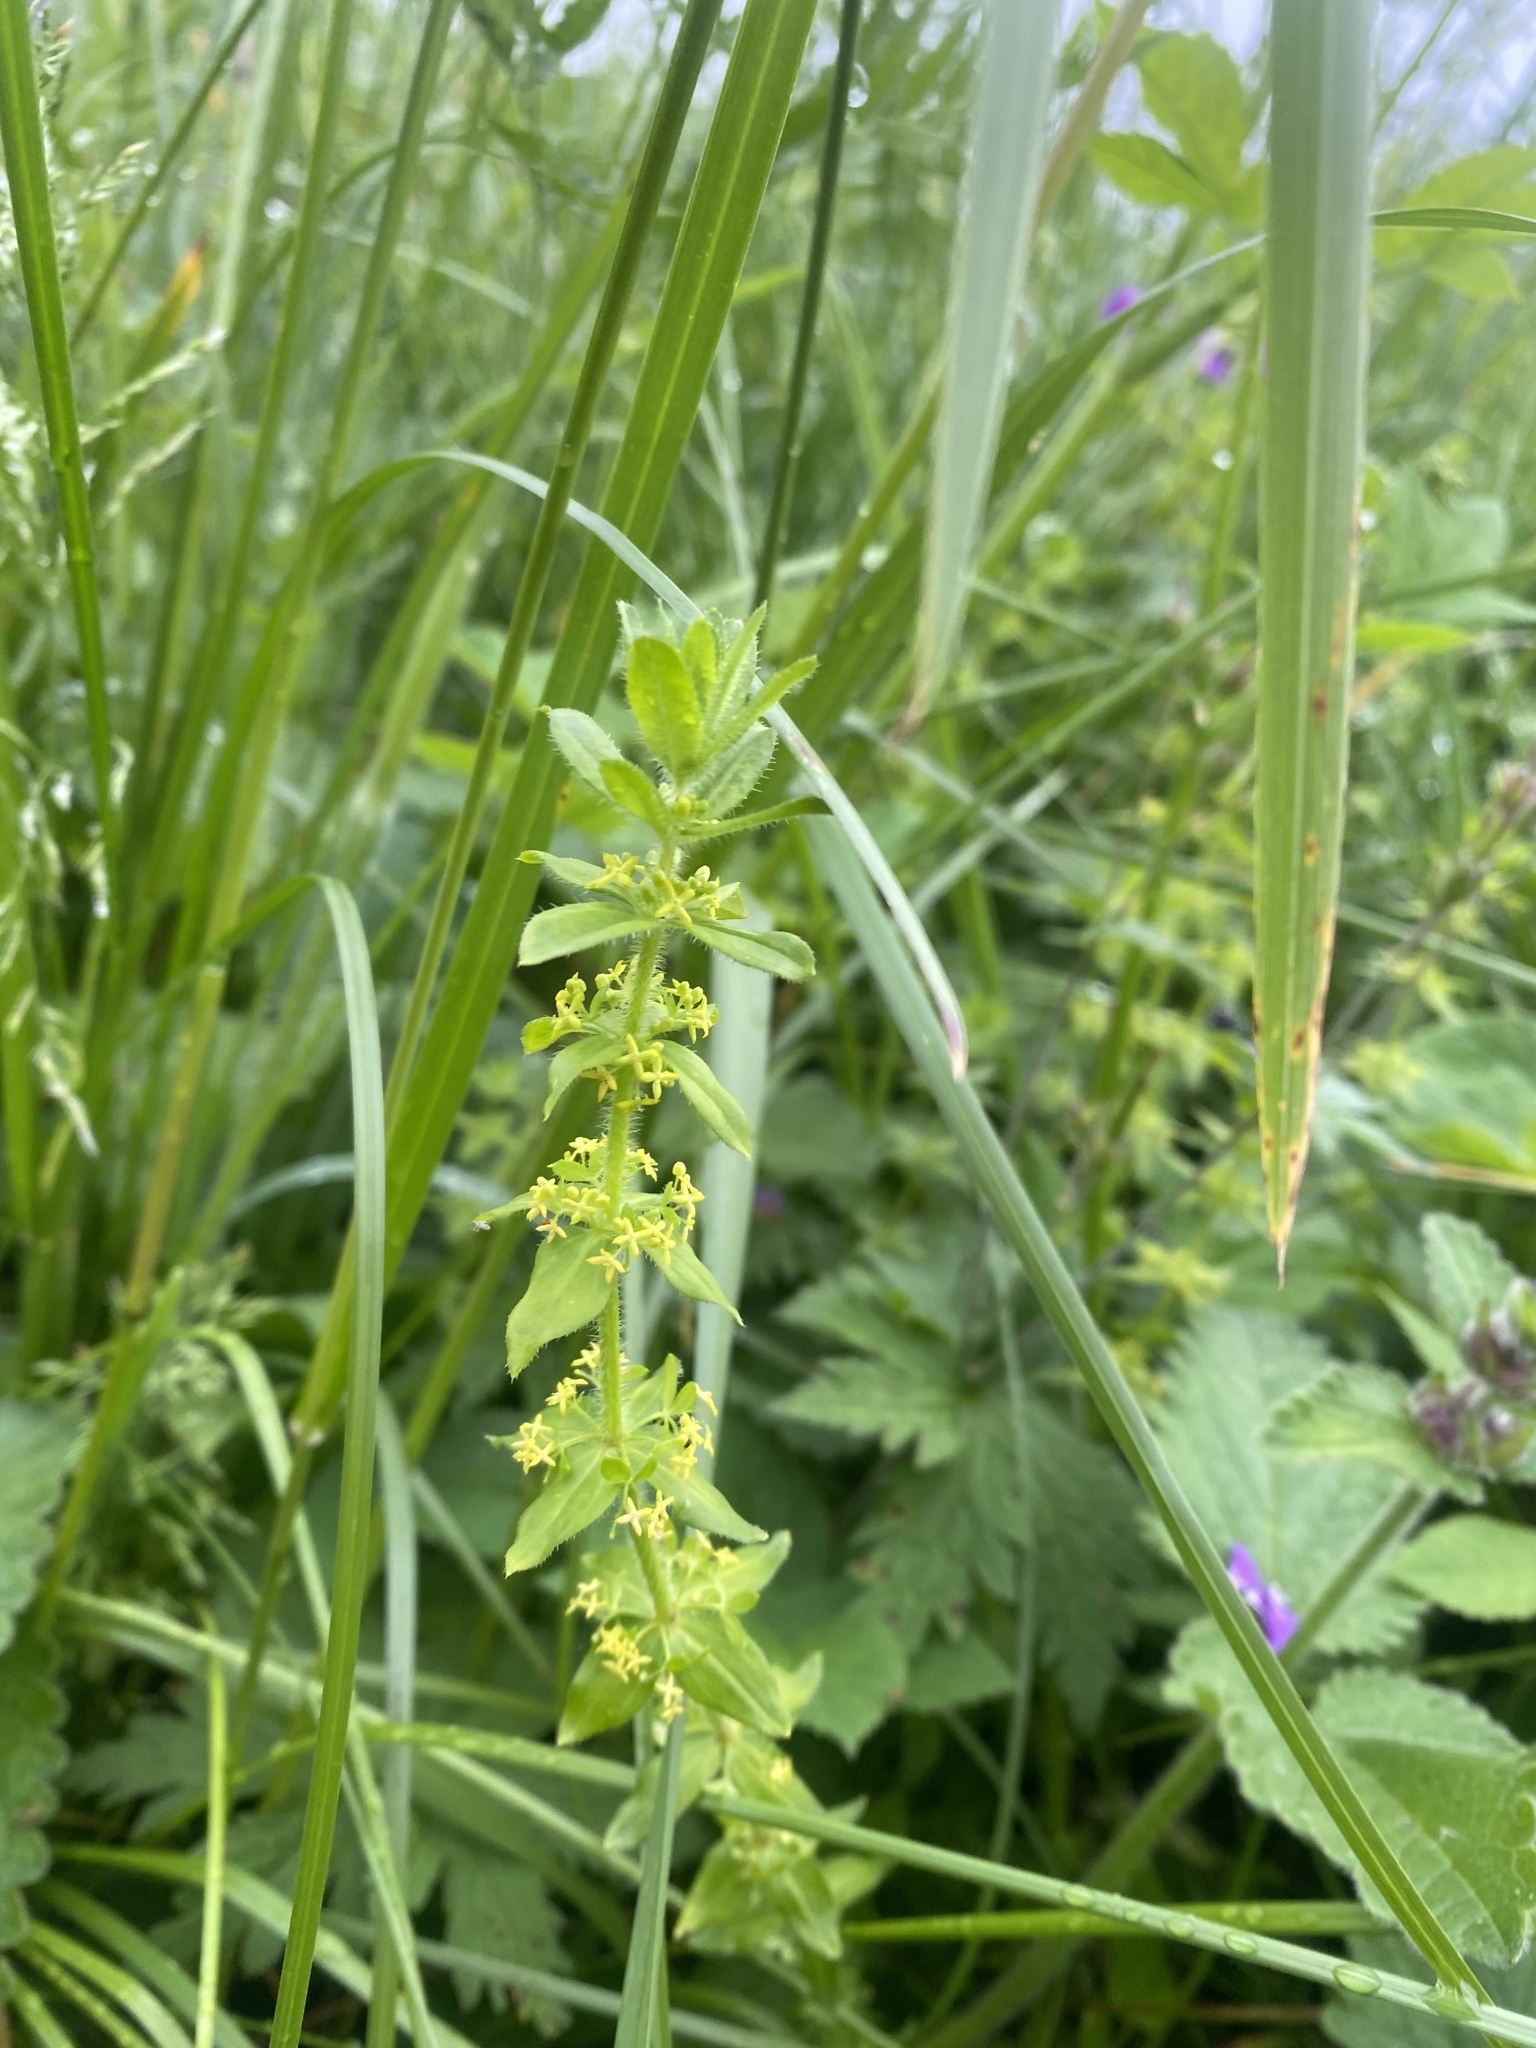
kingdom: Plantae
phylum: Tracheophyta
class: Magnoliopsida
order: Gentianales
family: Rubiaceae
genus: Cruciata
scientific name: Cruciata laevipes
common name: Crosswort
